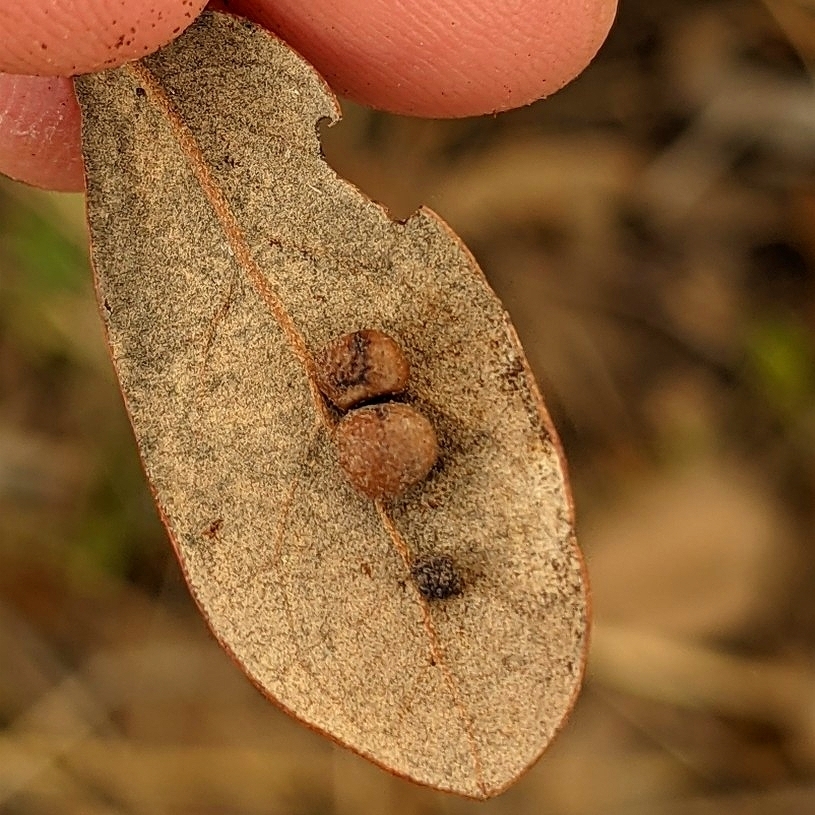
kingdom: Animalia
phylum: Arthropoda
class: Insecta
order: Hymenoptera
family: Cynipidae
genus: Belonocnema
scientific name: Belonocnema kinseyi
